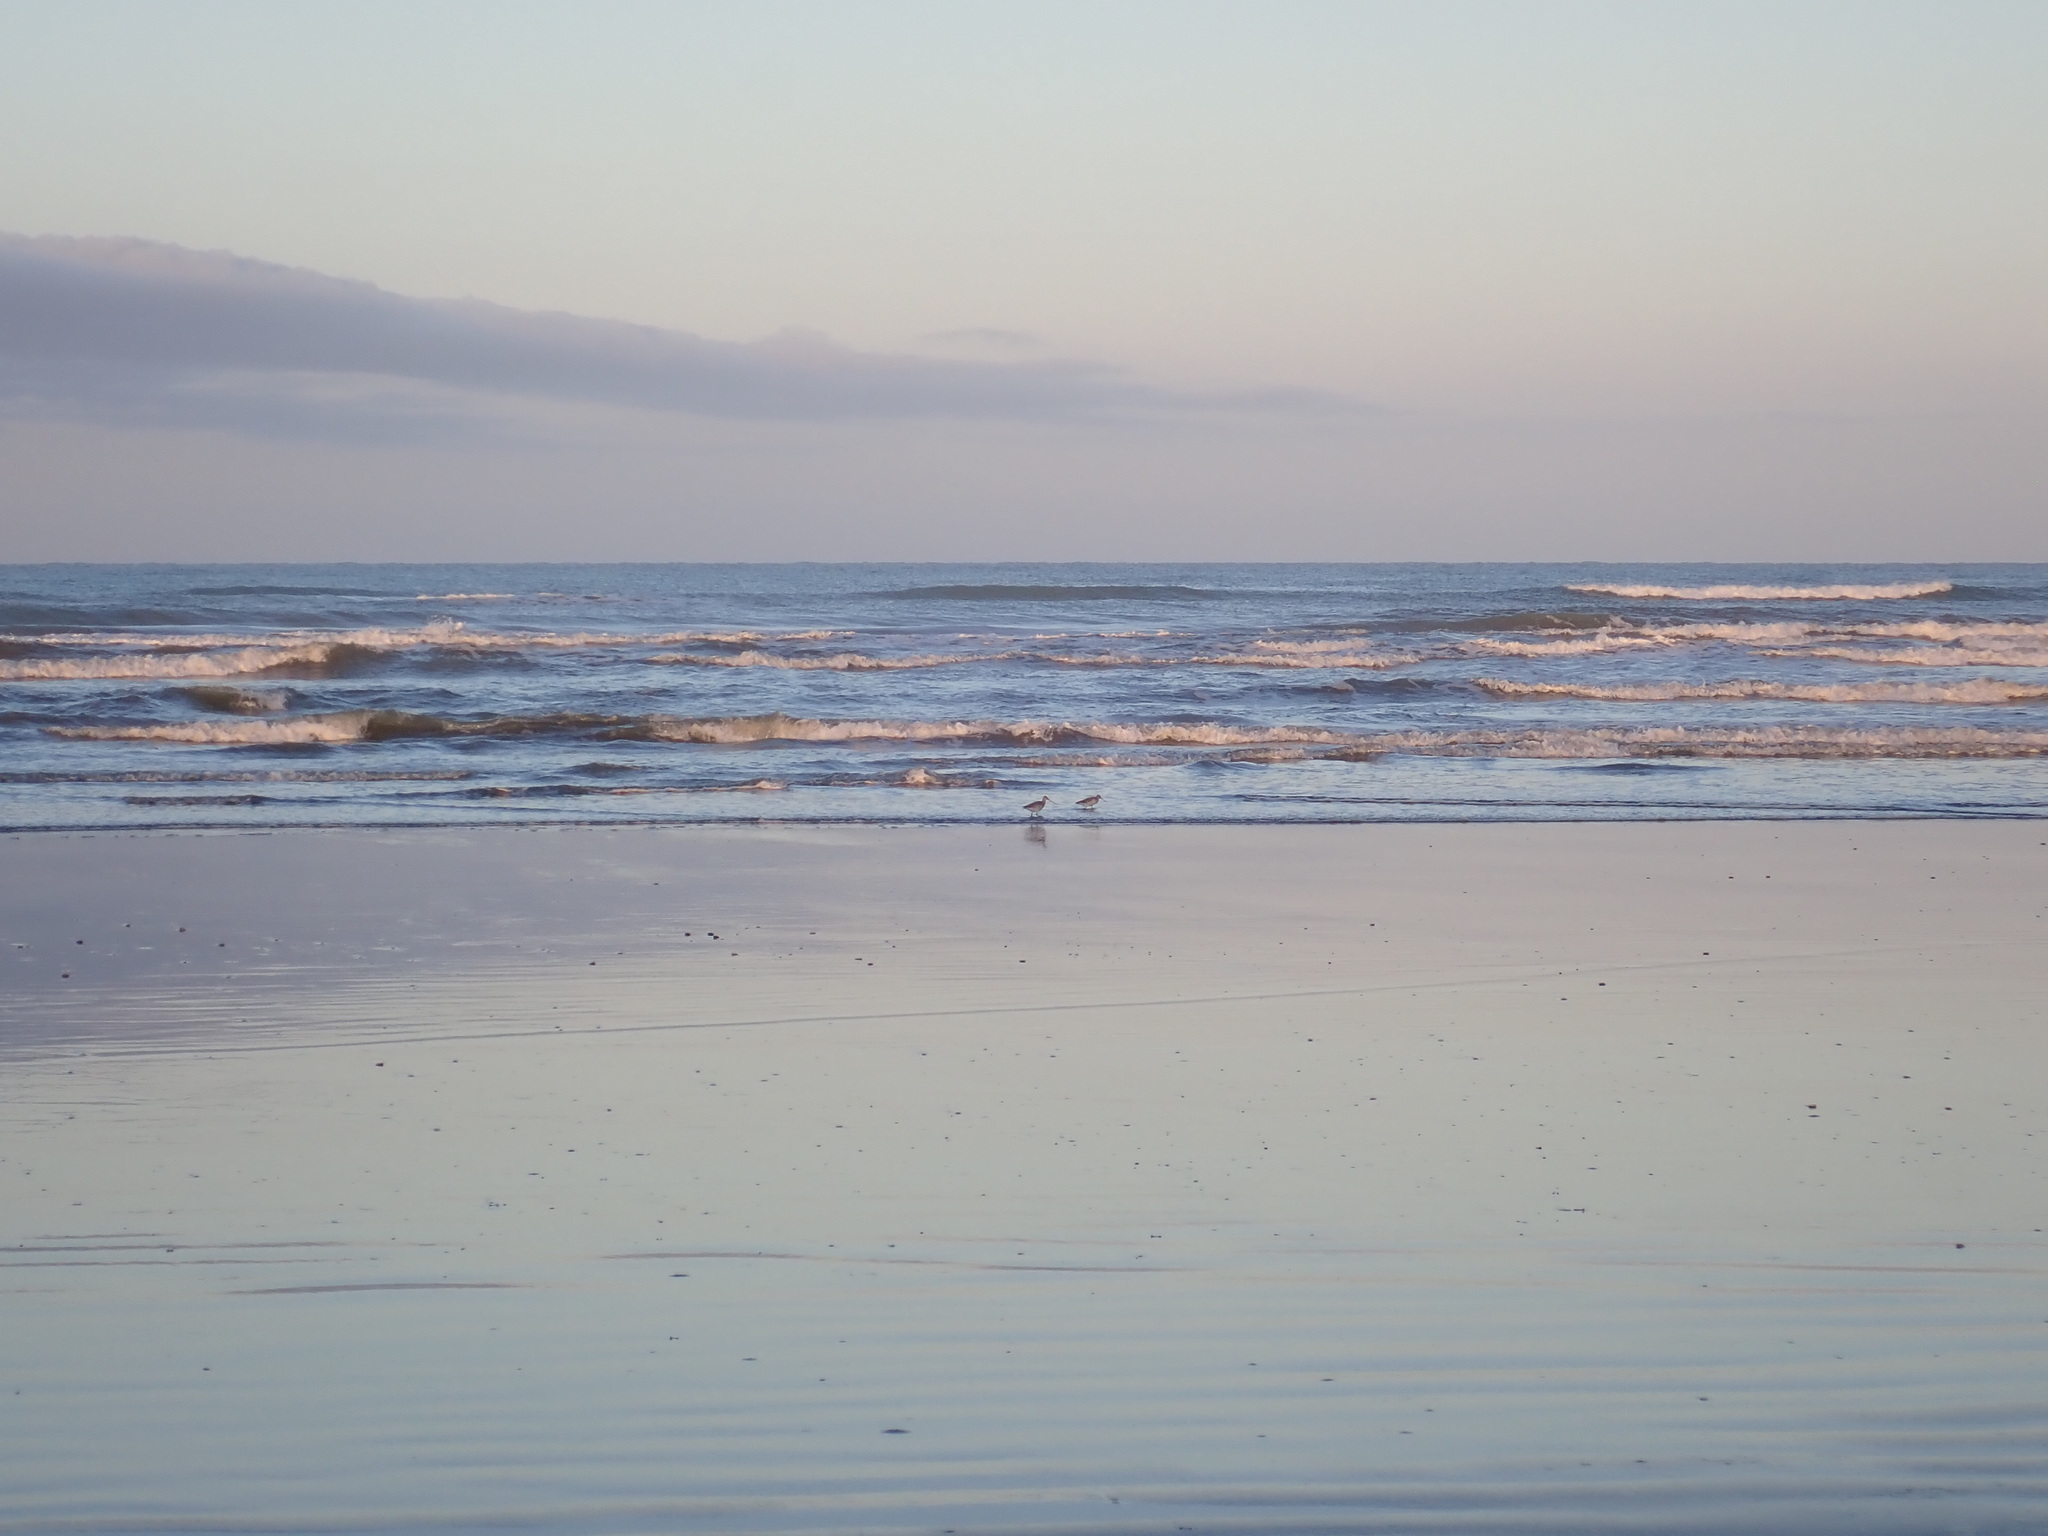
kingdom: Animalia
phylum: Chordata
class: Aves
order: Charadriiformes
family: Scolopacidae
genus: Limosa
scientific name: Limosa lapponica
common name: Bar-tailed godwit
